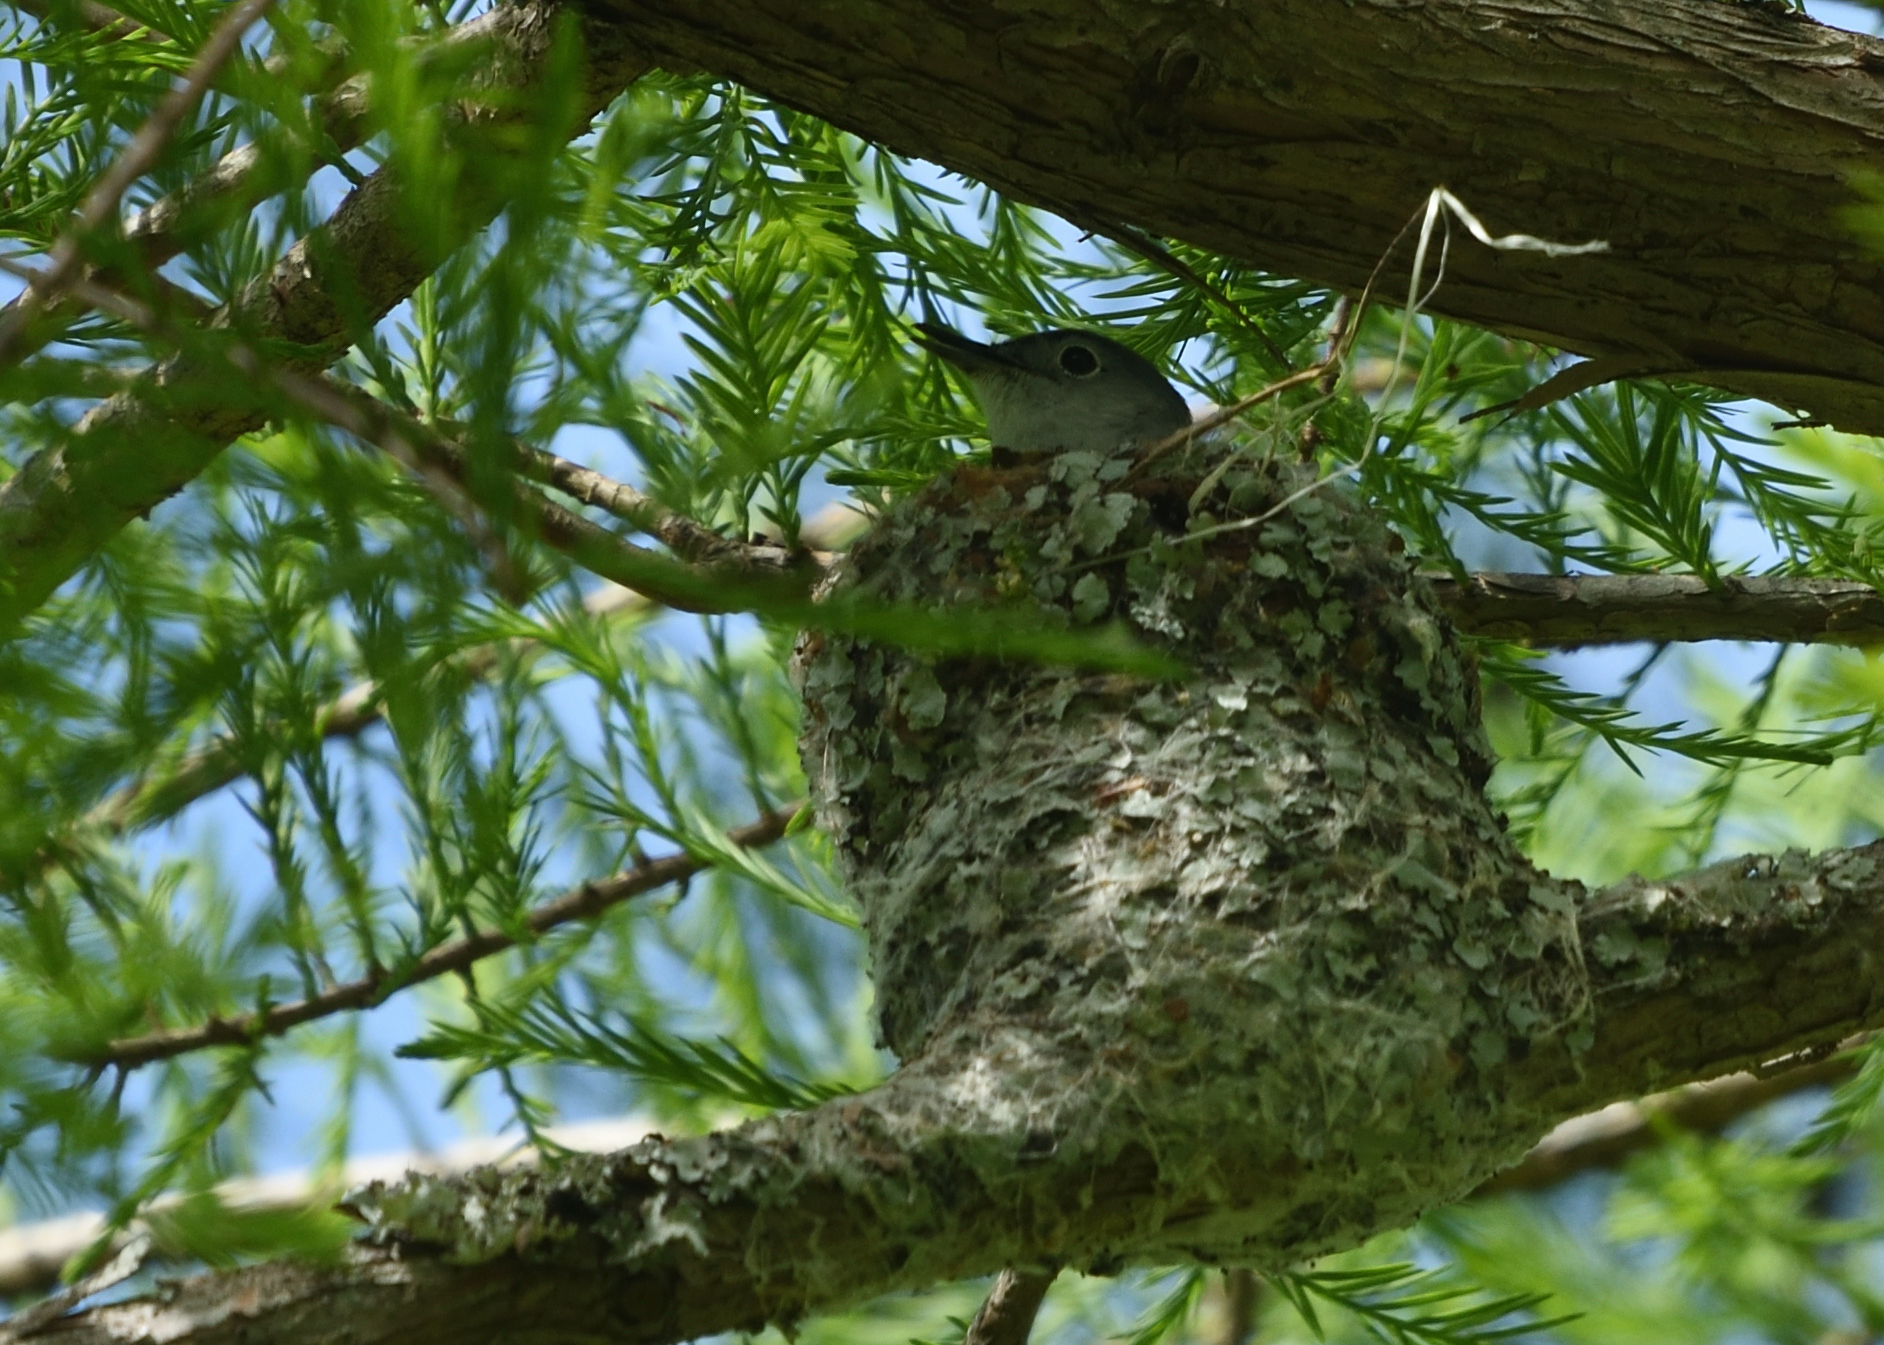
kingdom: Animalia
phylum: Chordata
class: Aves
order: Passeriformes
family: Polioptilidae
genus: Polioptila
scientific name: Polioptila caerulea
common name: Blue-gray gnatcatcher
